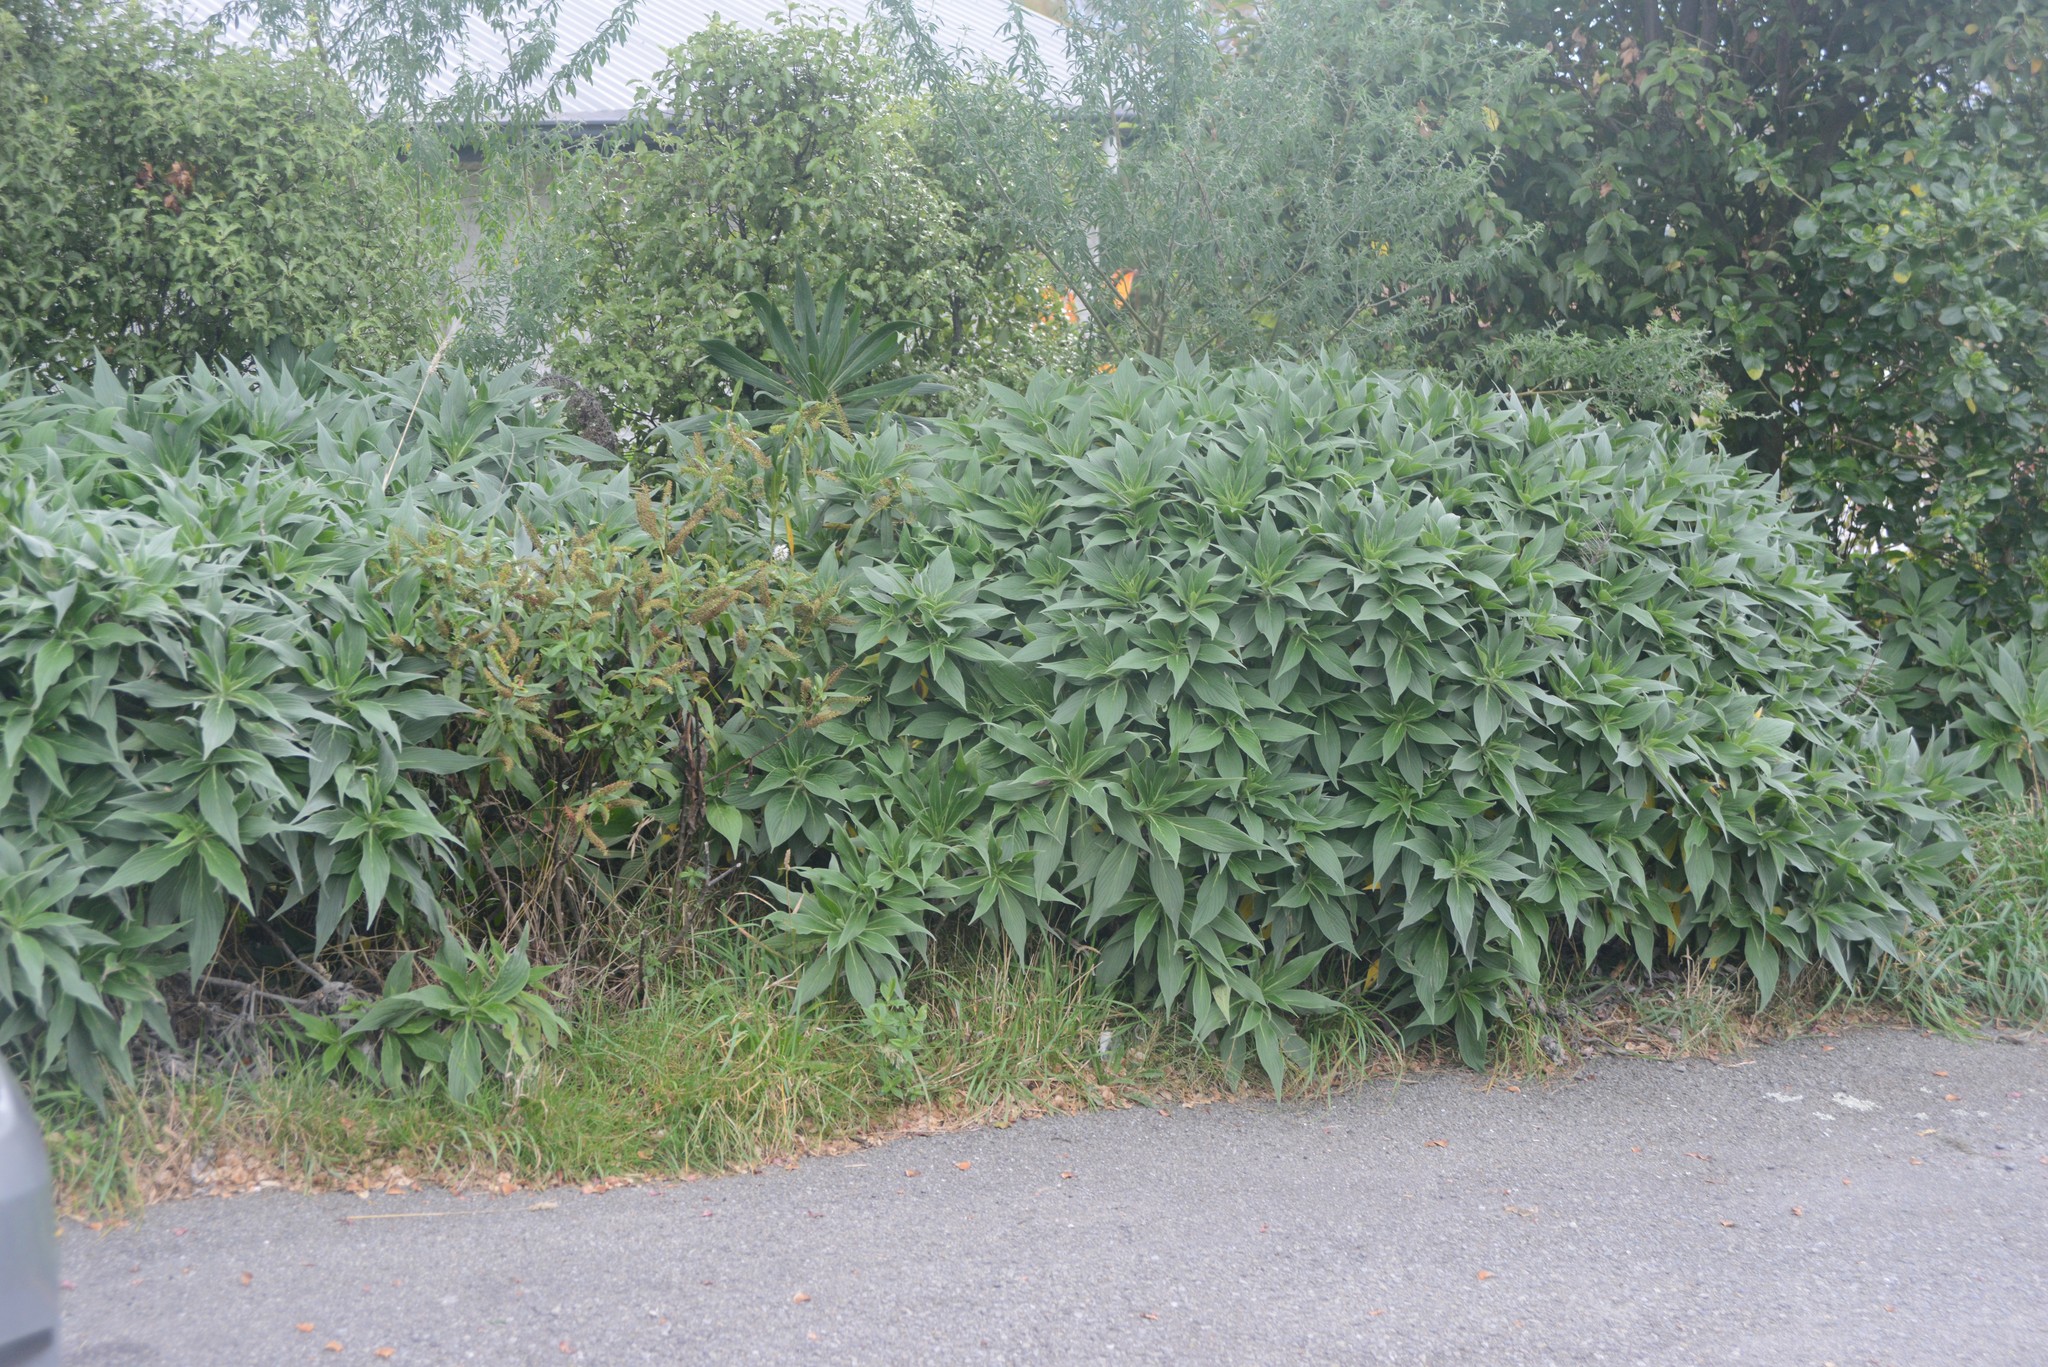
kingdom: Plantae
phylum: Tracheophyta
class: Magnoliopsida
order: Boraginales
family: Boraginaceae
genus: Echium
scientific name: Echium candicans
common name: Pride of madeira
